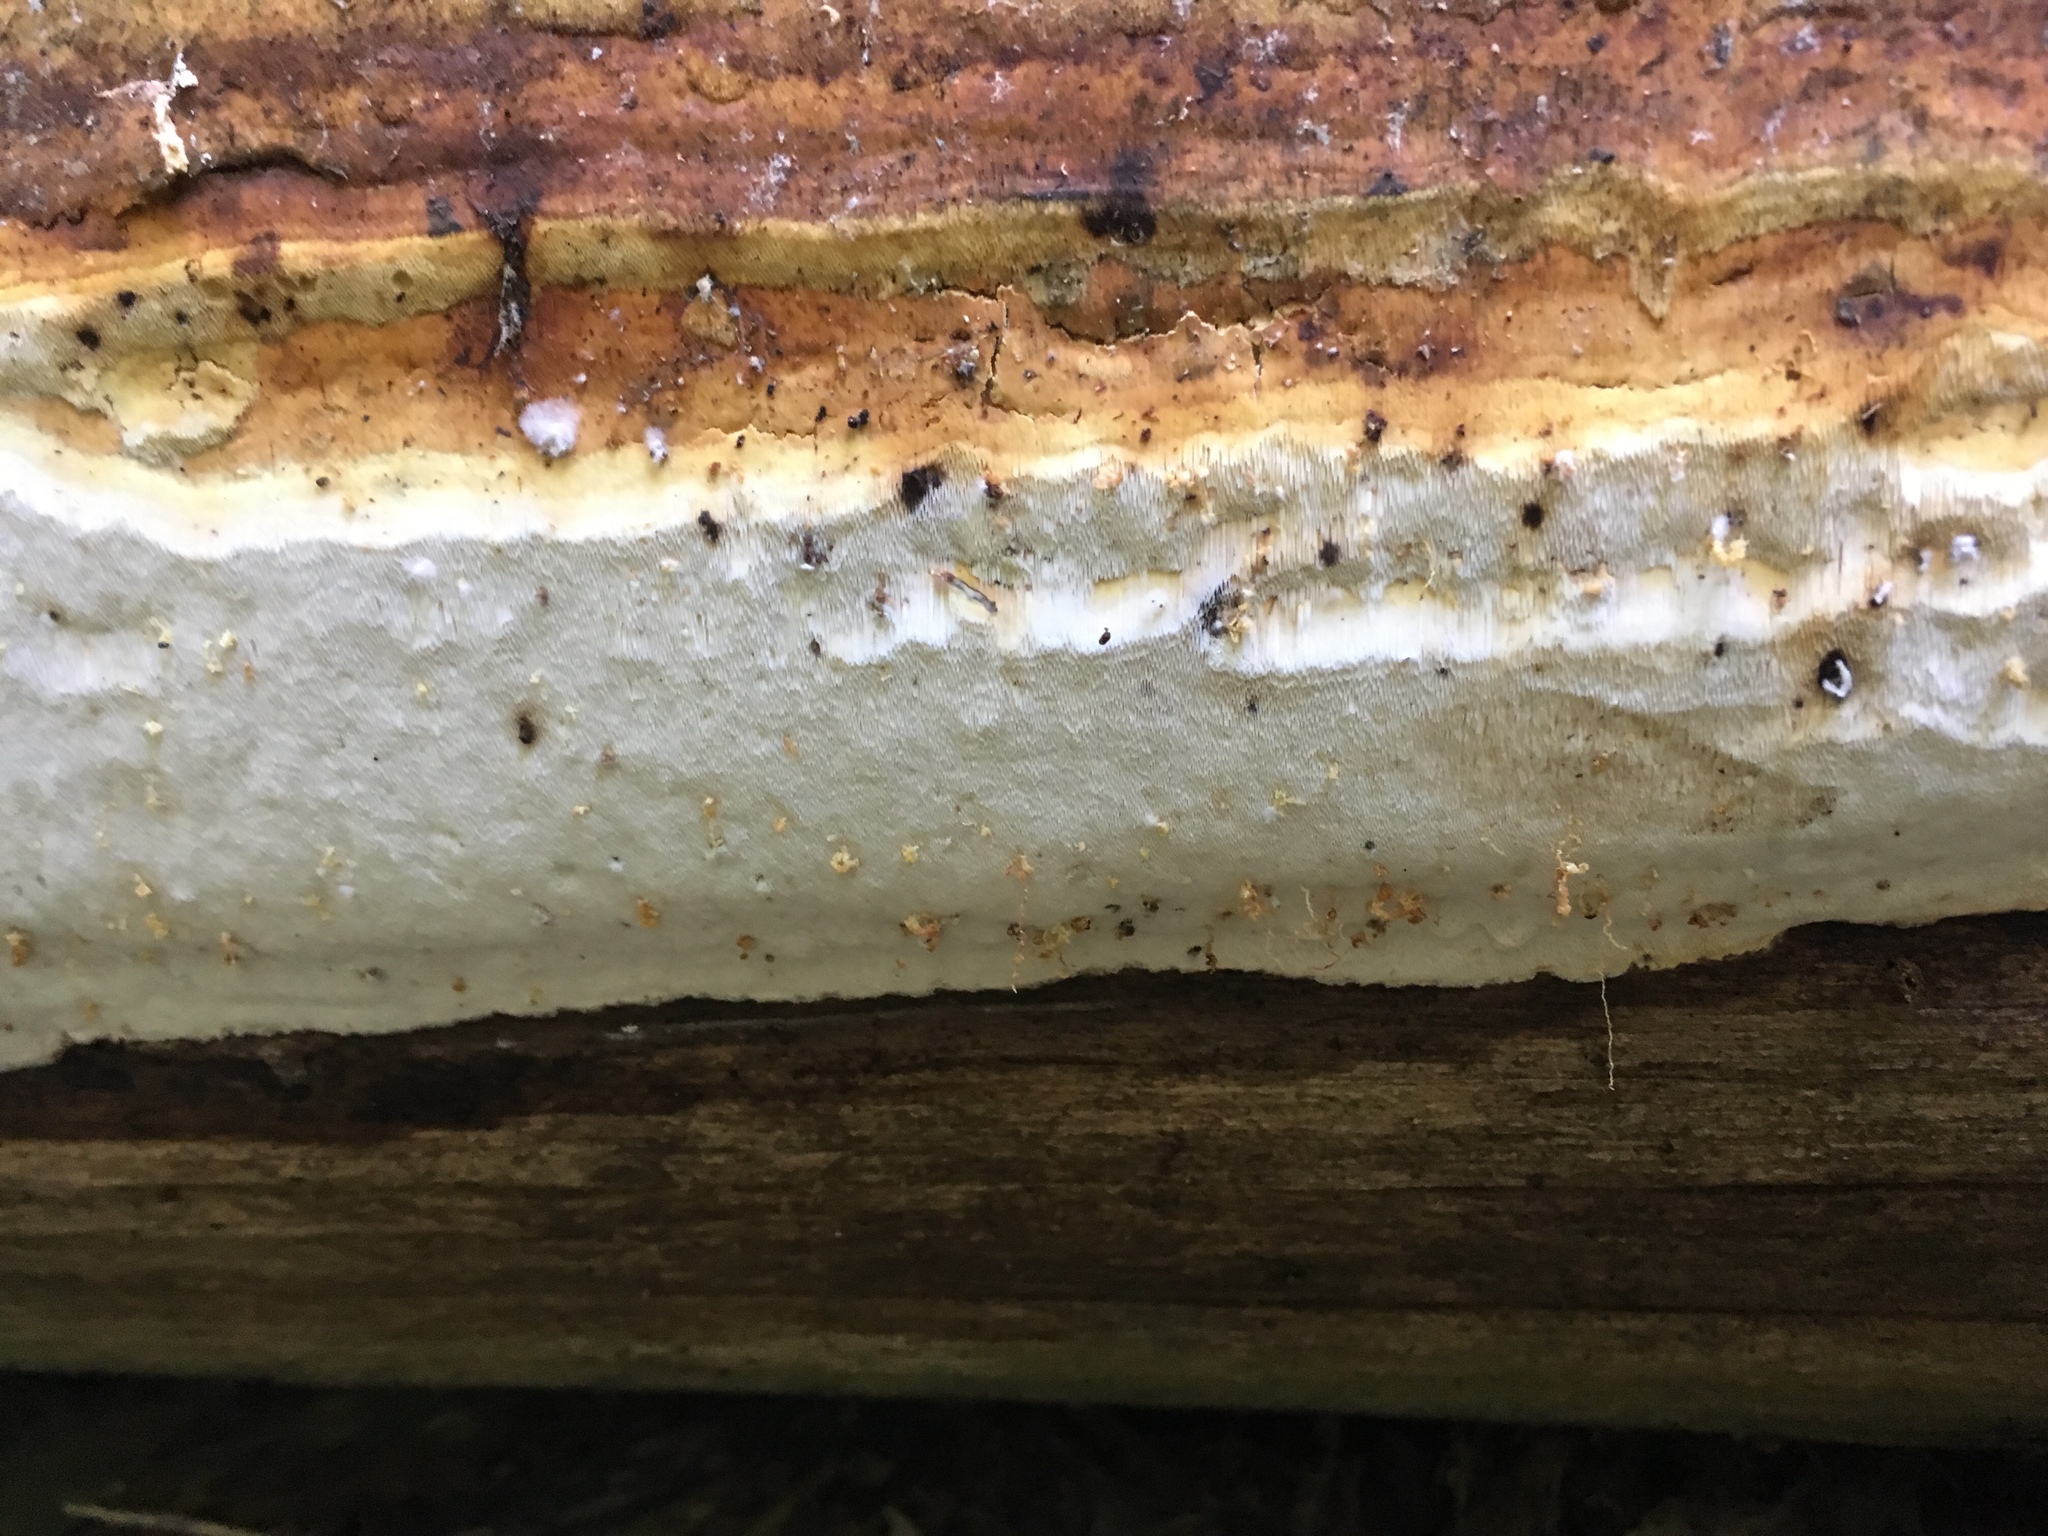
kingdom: Fungi
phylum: Basidiomycota
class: Agaricomycetes
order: Polyporales
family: Fomitopsidaceae
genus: Resinoporia
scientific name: Resinoporia piceata
